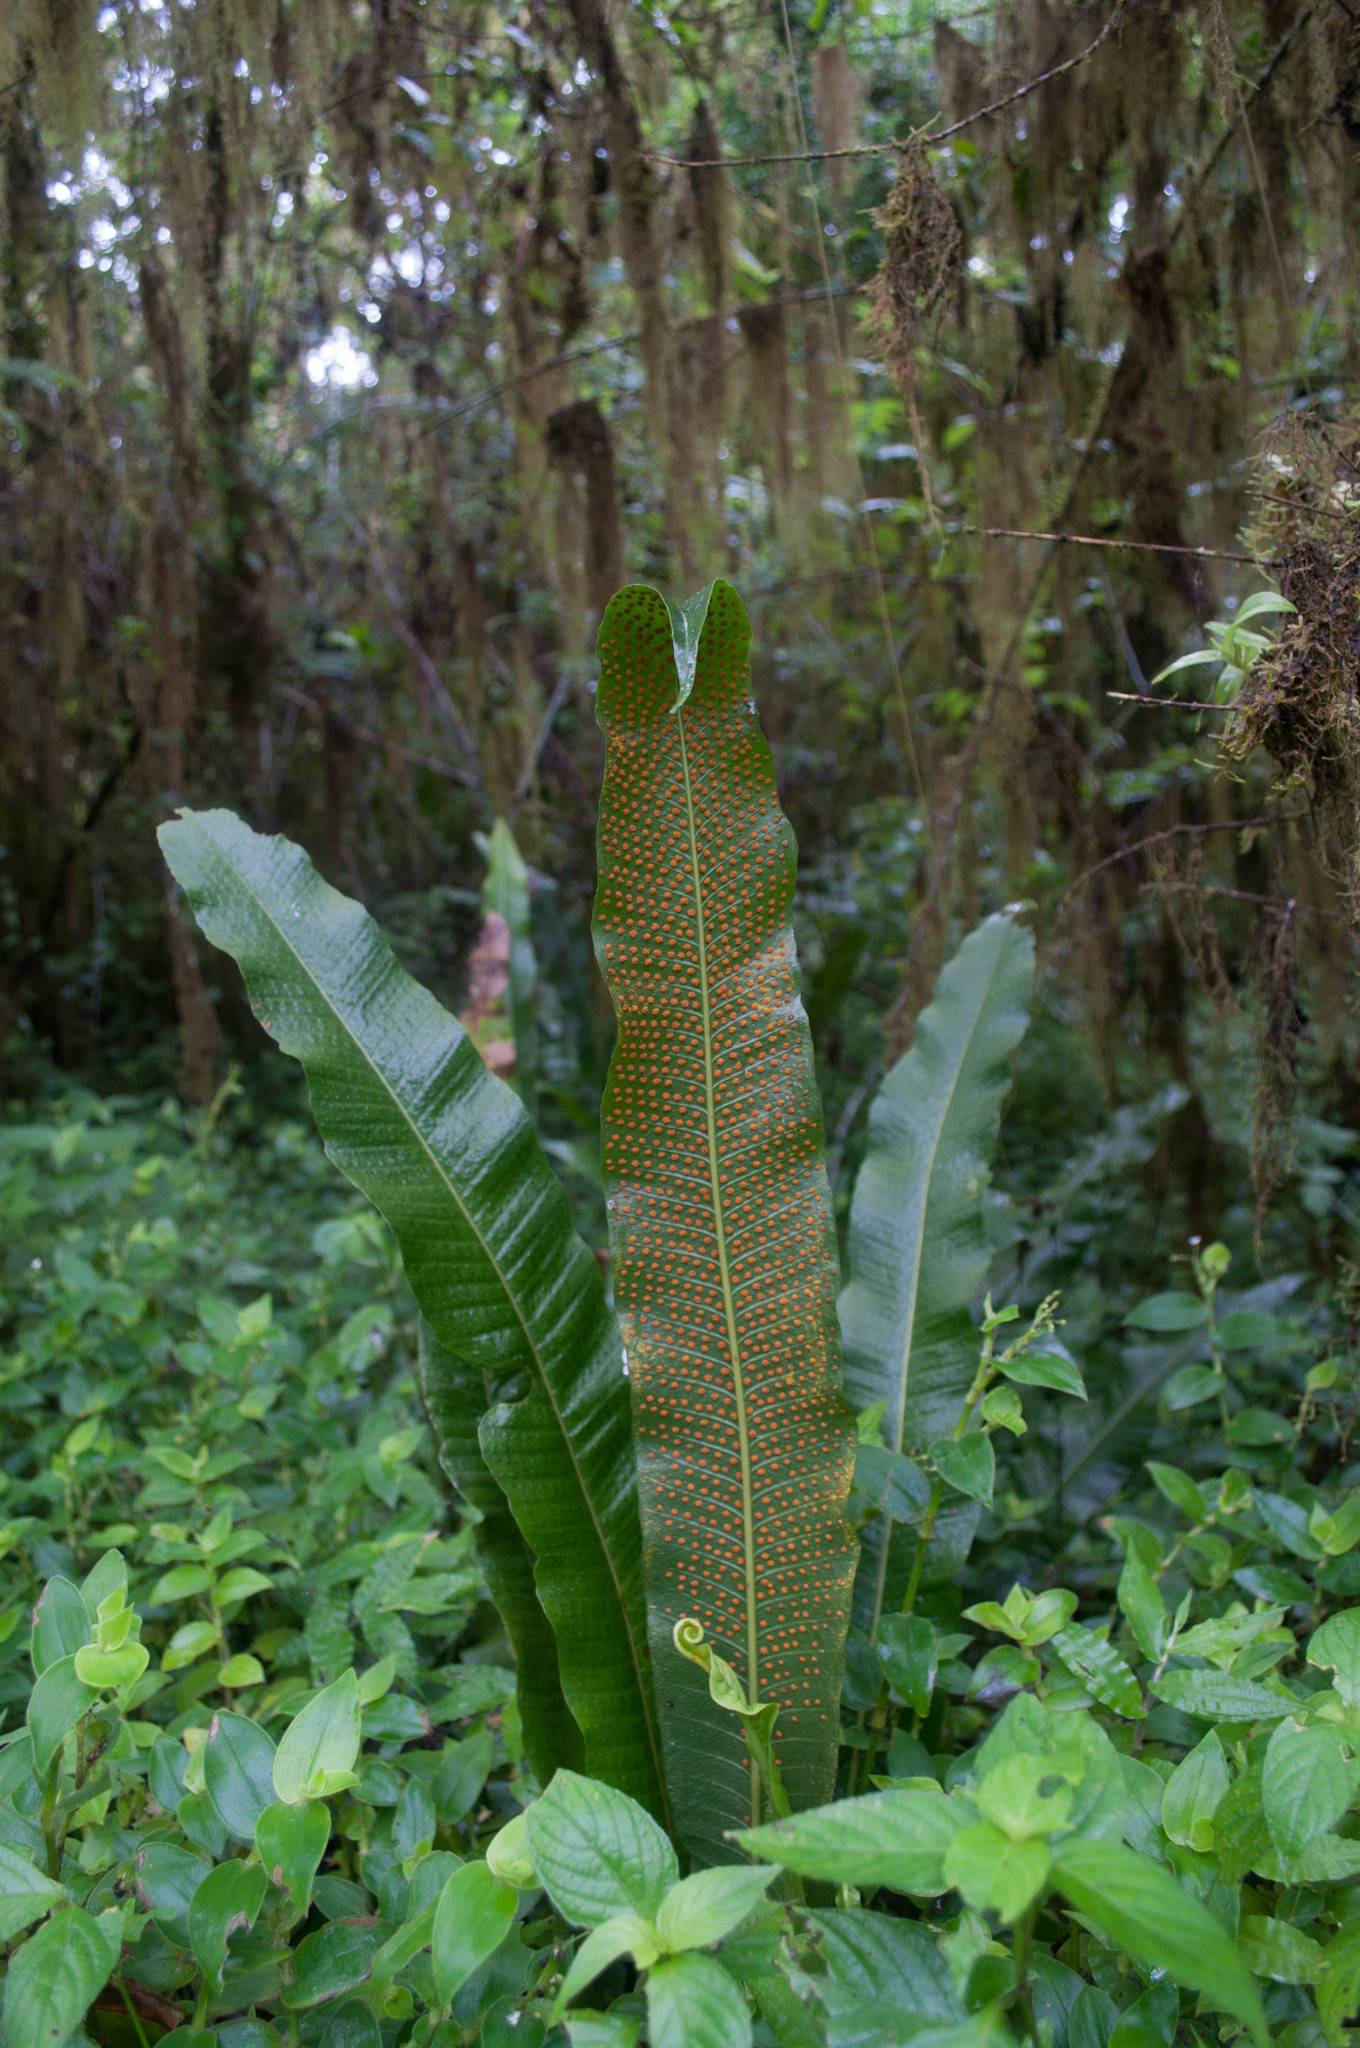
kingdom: Plantae
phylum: Tracheophyta
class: Polypodiopsida
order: Polypodiales
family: Polypodiaceae
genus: Campyloneurum
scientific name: Campyloneurum phyllitidis
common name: Cow-tongue fern
